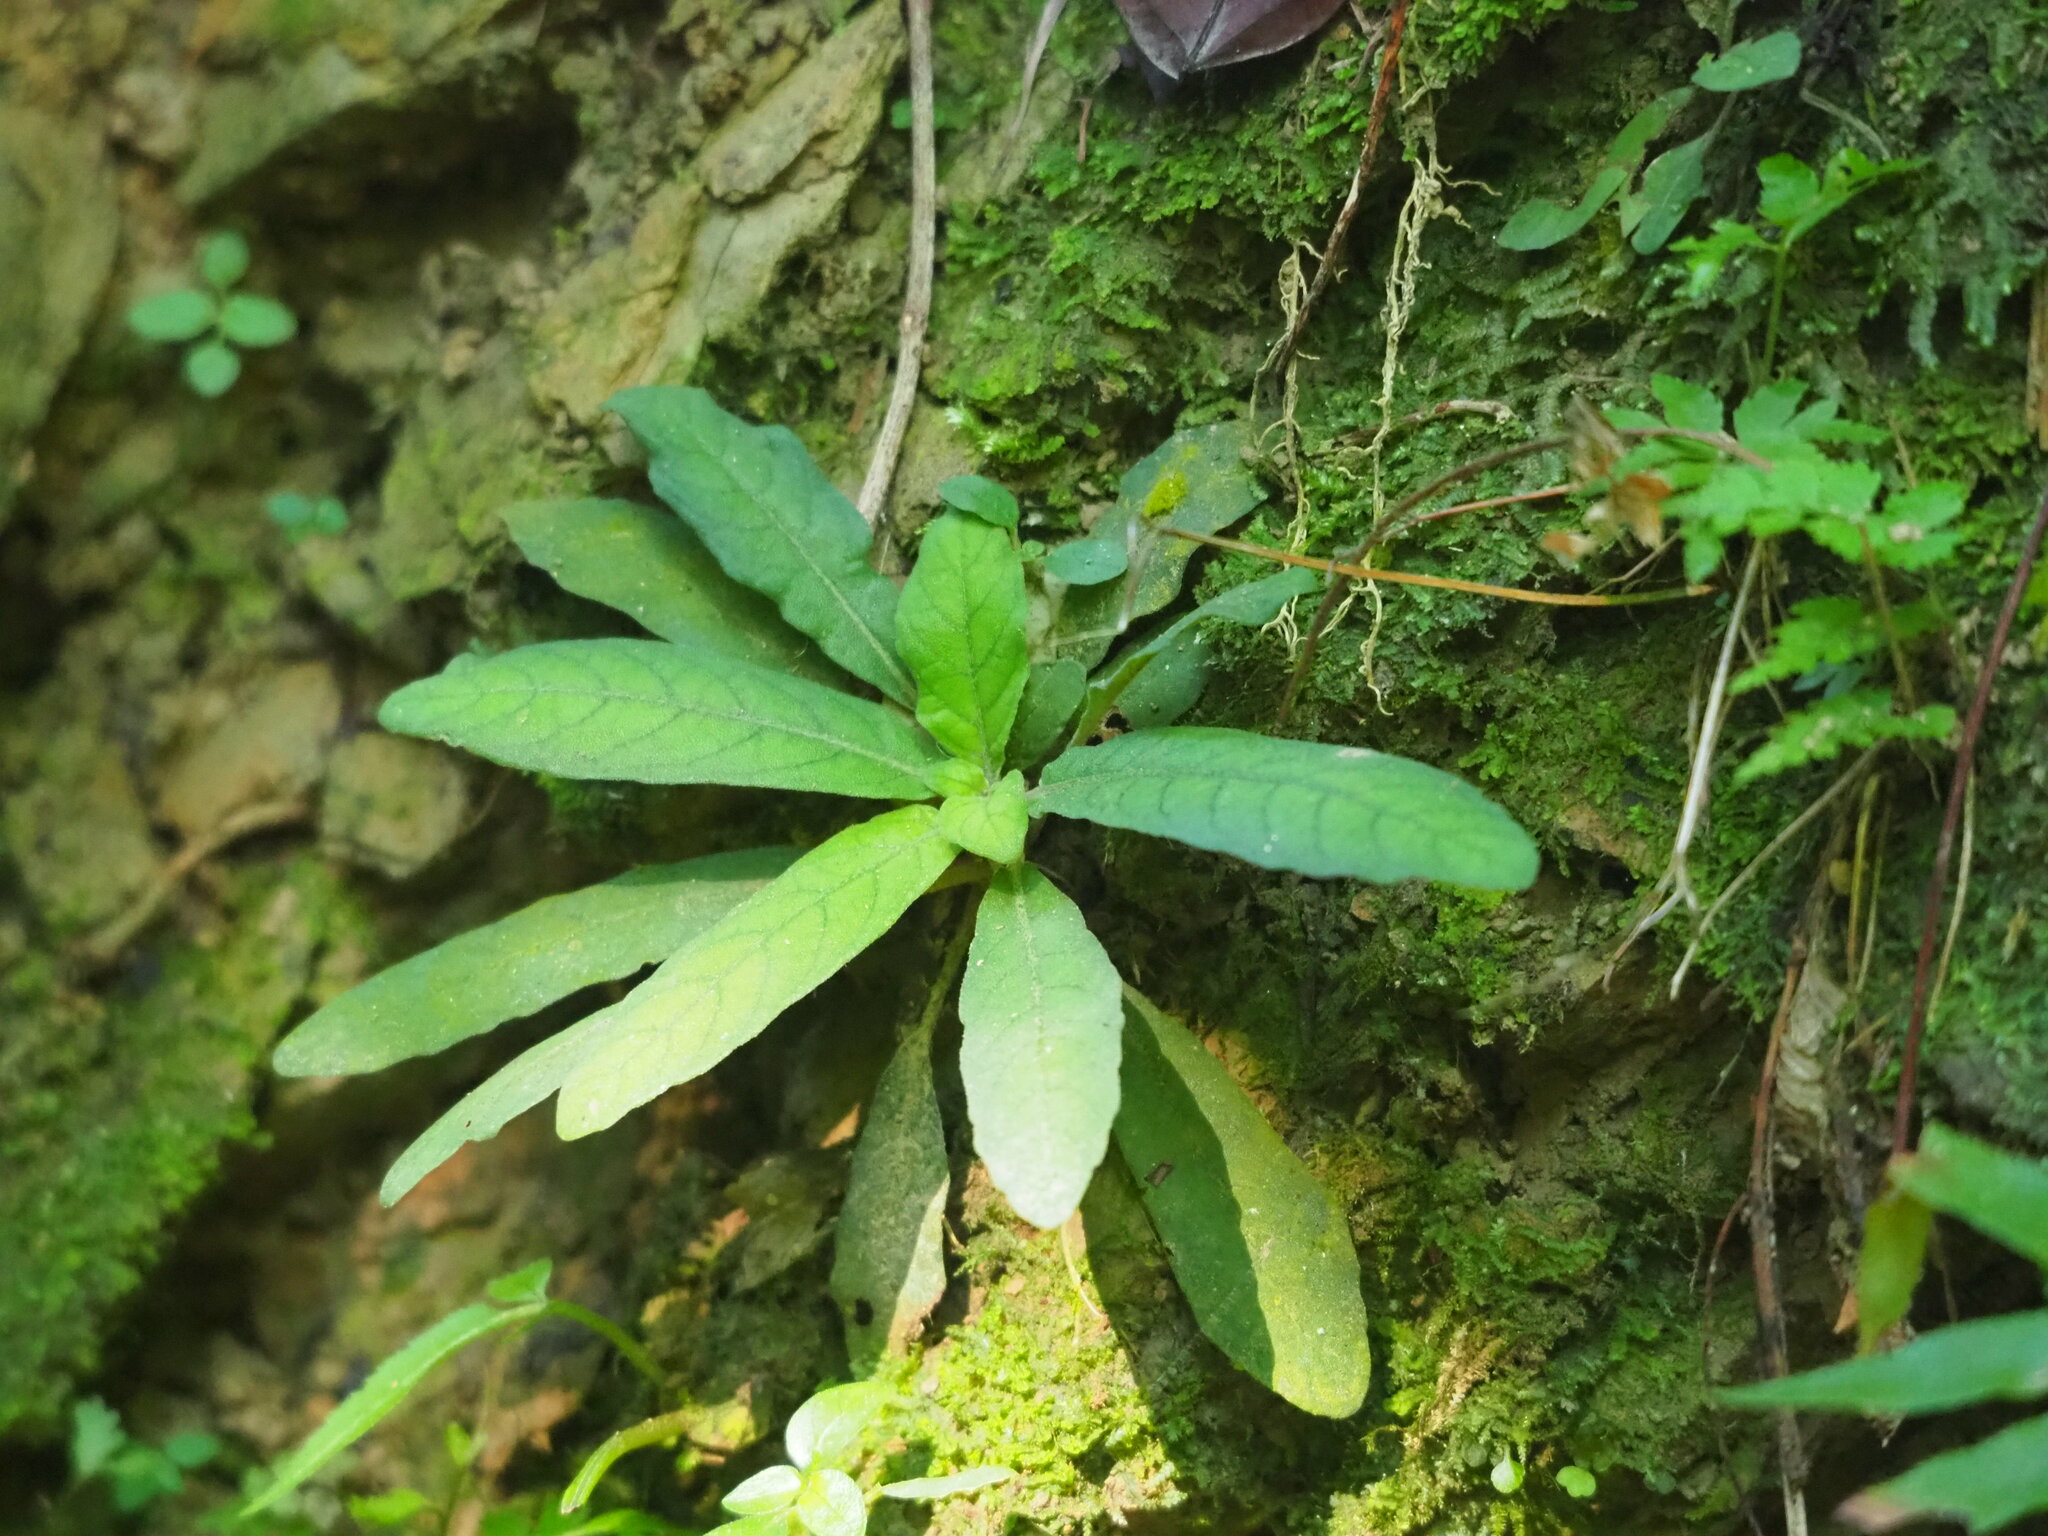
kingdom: Plantae
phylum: Tracheophyta
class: Magnoliopsida
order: Lamiales
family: Acanthaceae
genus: Staurogyne
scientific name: Staurogyne concinnula
